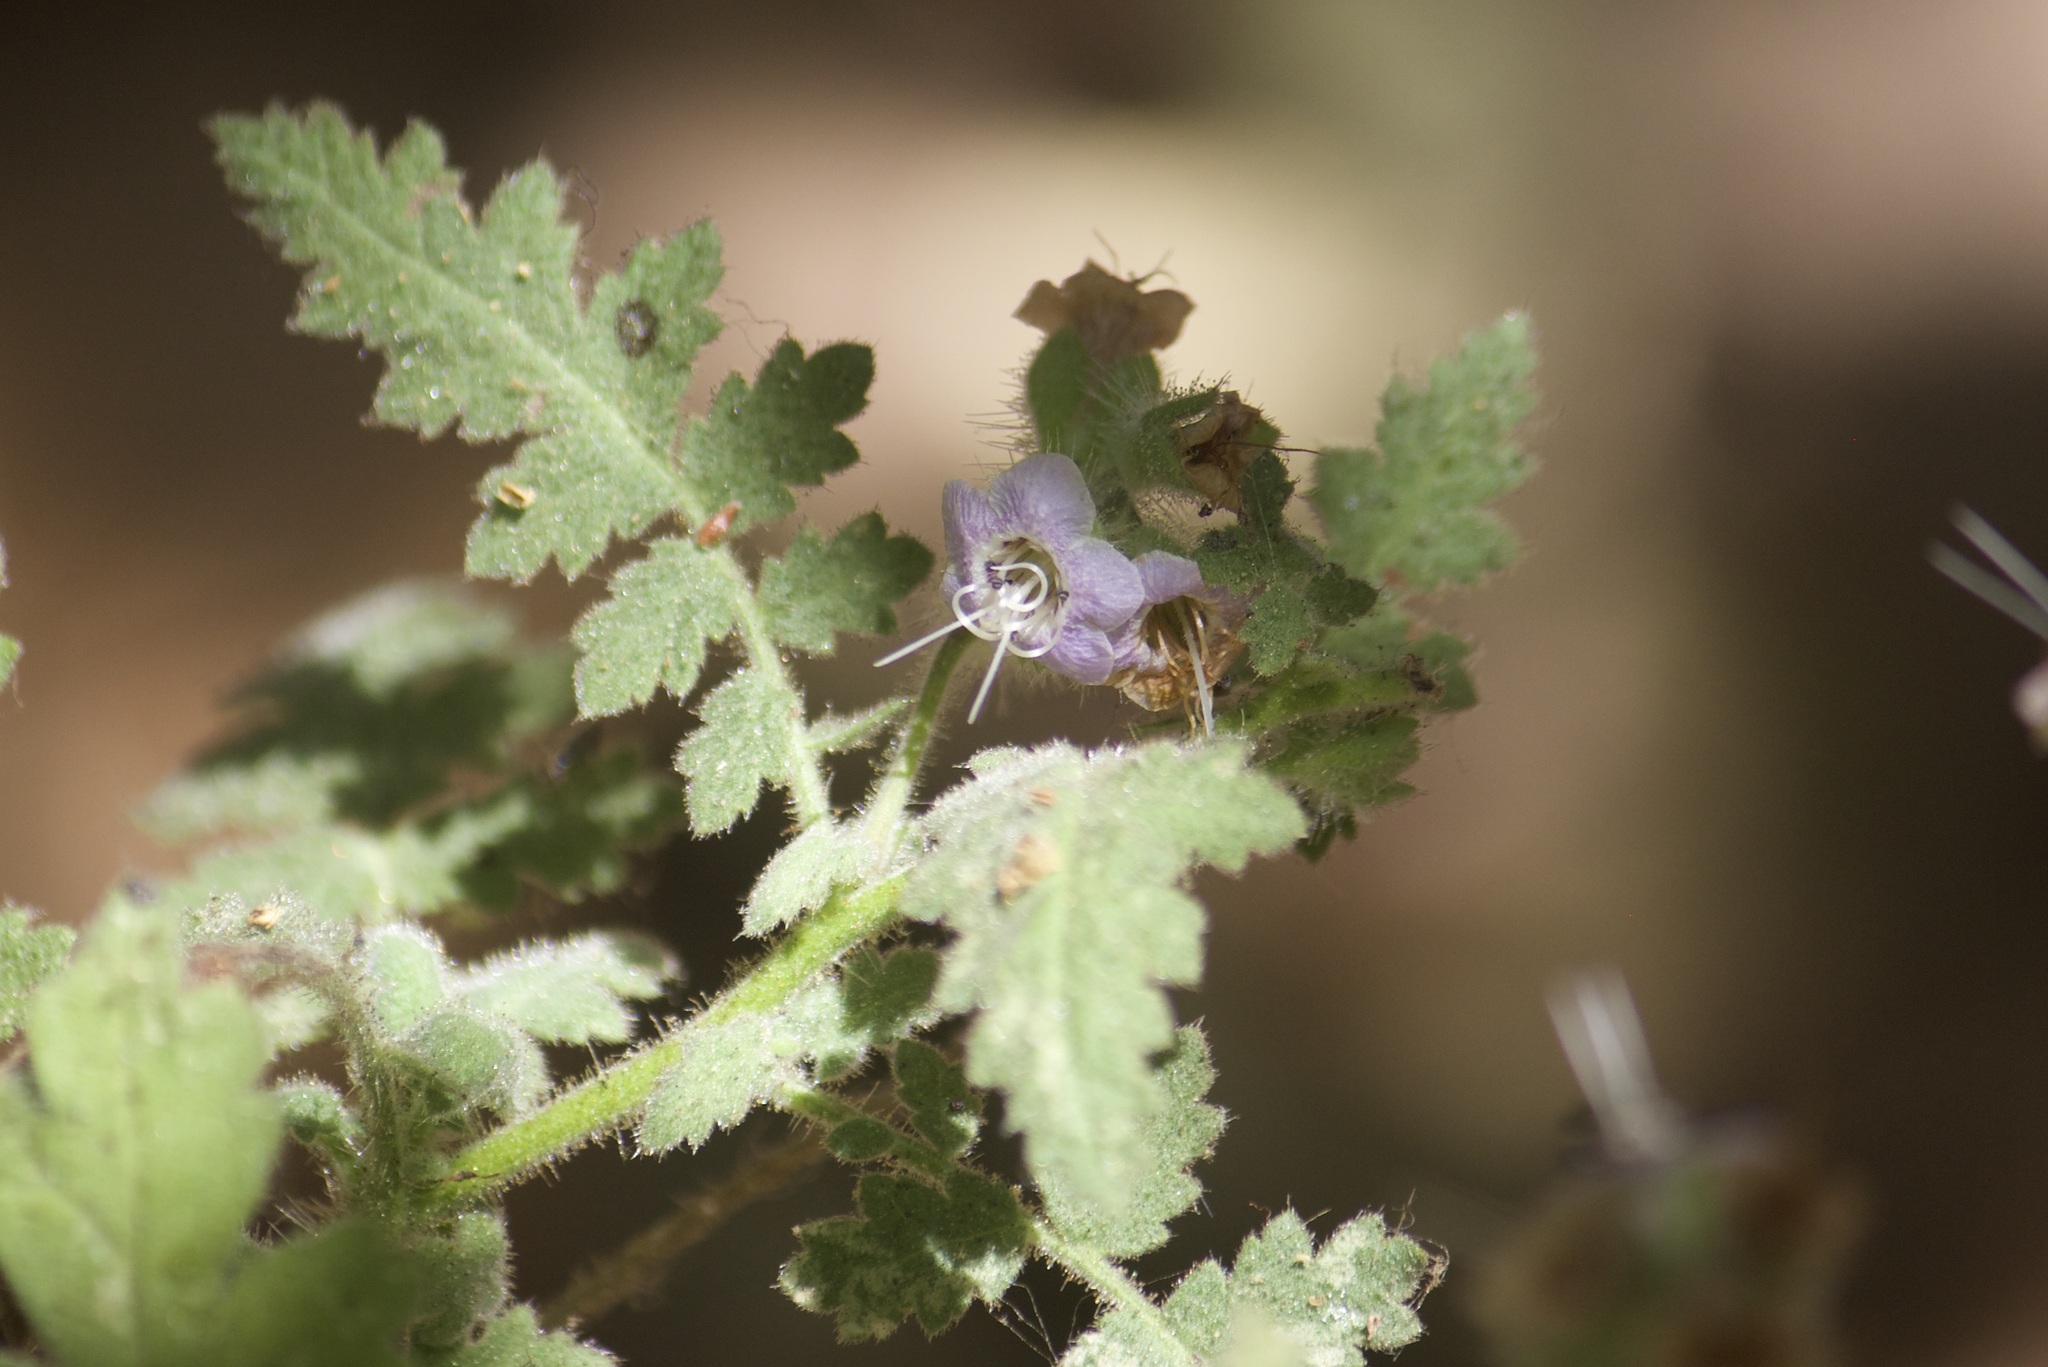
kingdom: Plantae
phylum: Tracheophyta
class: Magnoliopsida
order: Boraginales
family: Hydrophyllaceae
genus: Phacelia
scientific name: Phacelia ramosissima
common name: Branching phacelia
